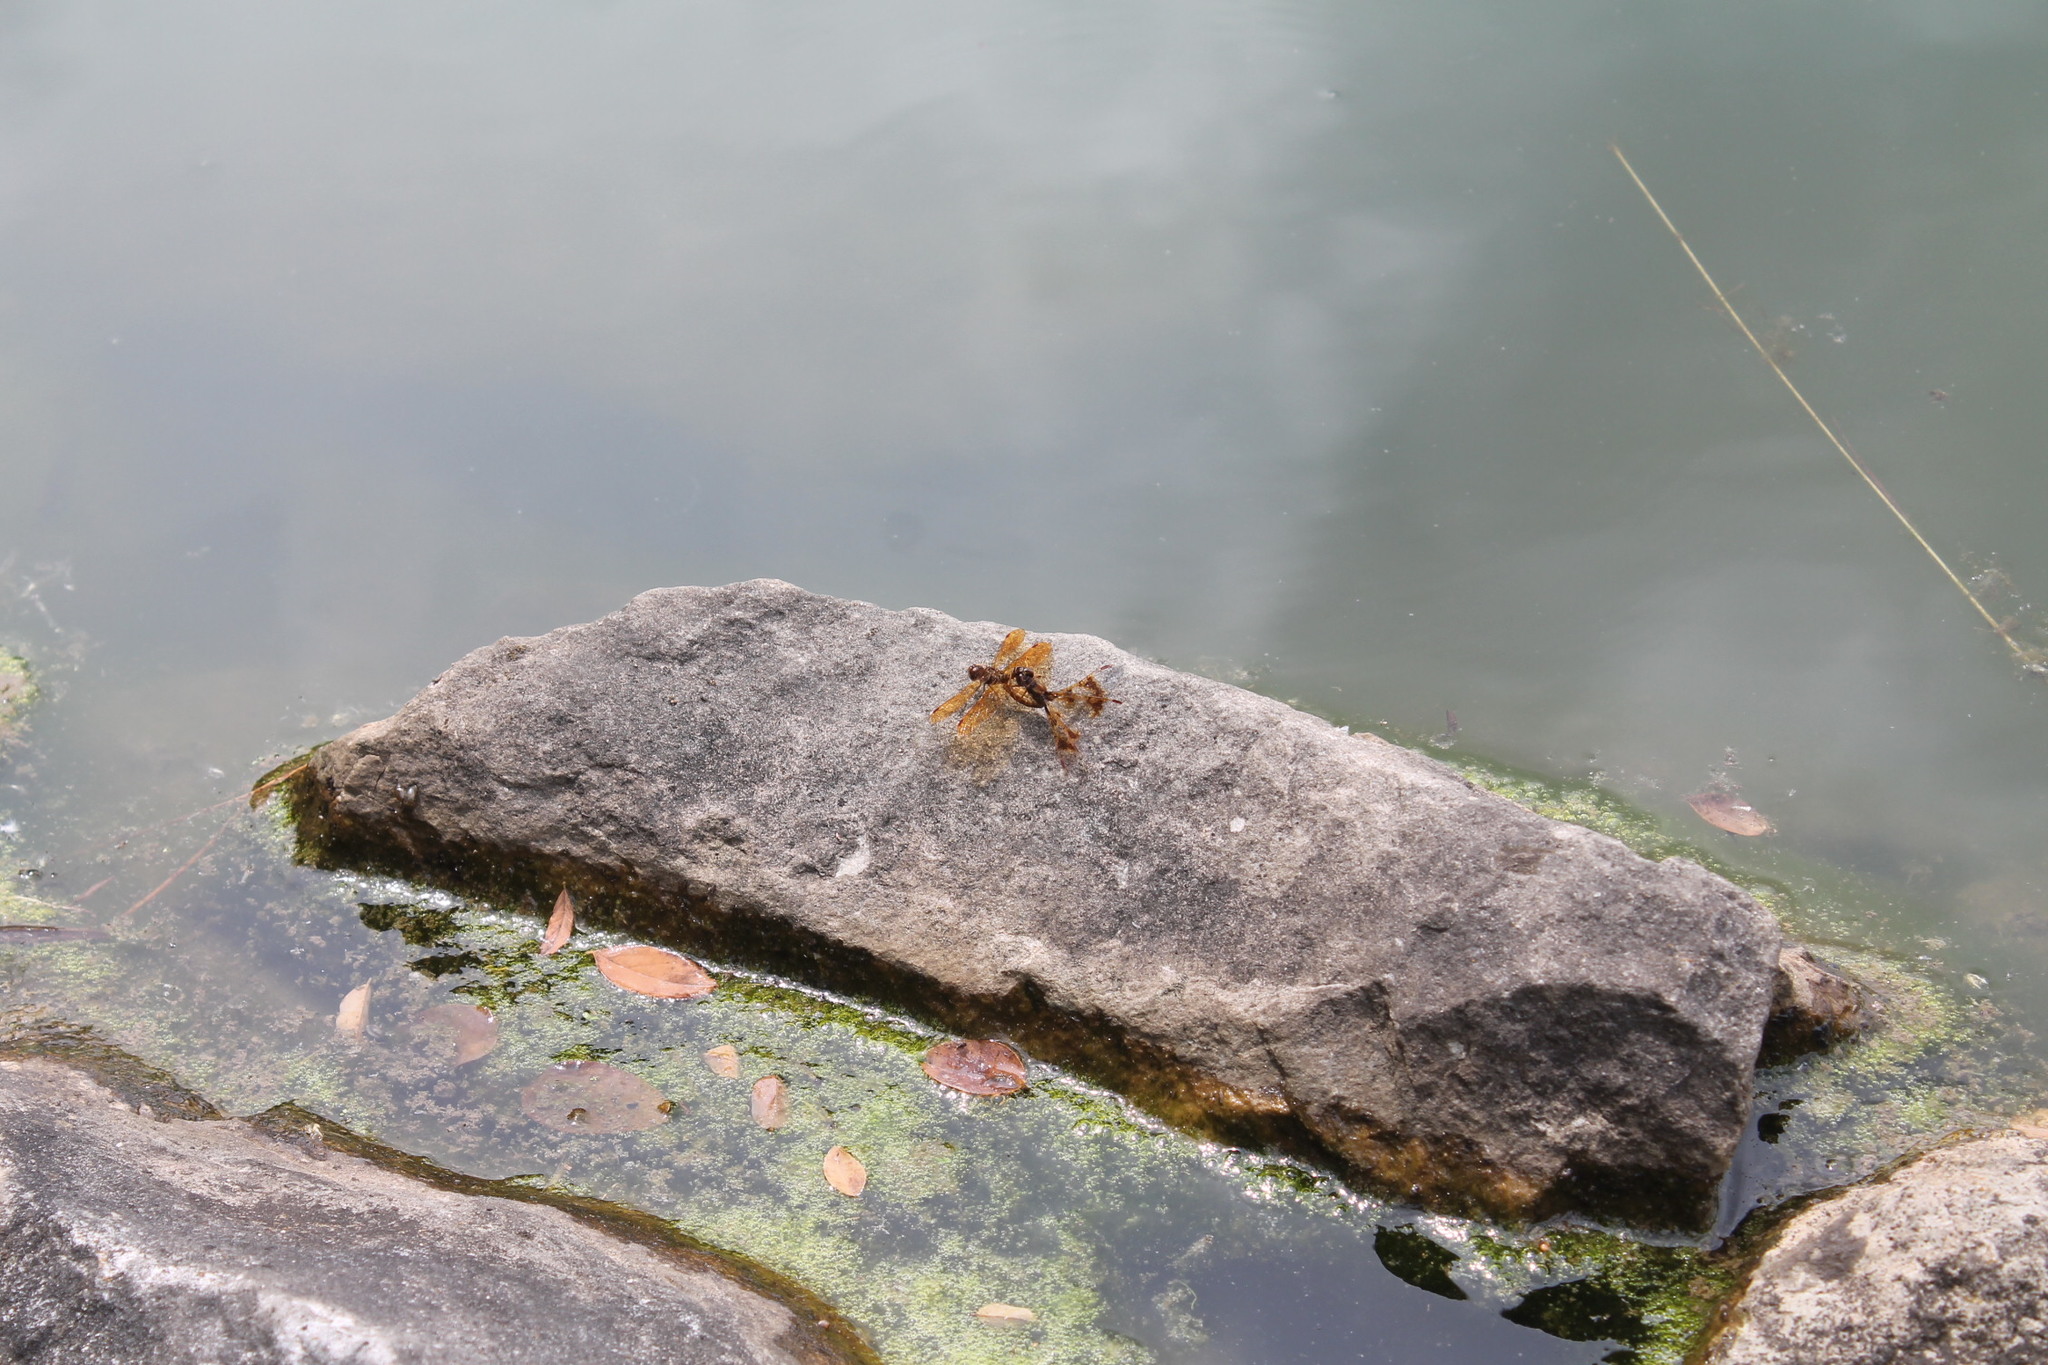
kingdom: Animalia
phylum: Arthropoda
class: Insecta
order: Odonata
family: Libellulidae
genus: Perithemis
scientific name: Perithemis tenera
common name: Eastern amberwing
